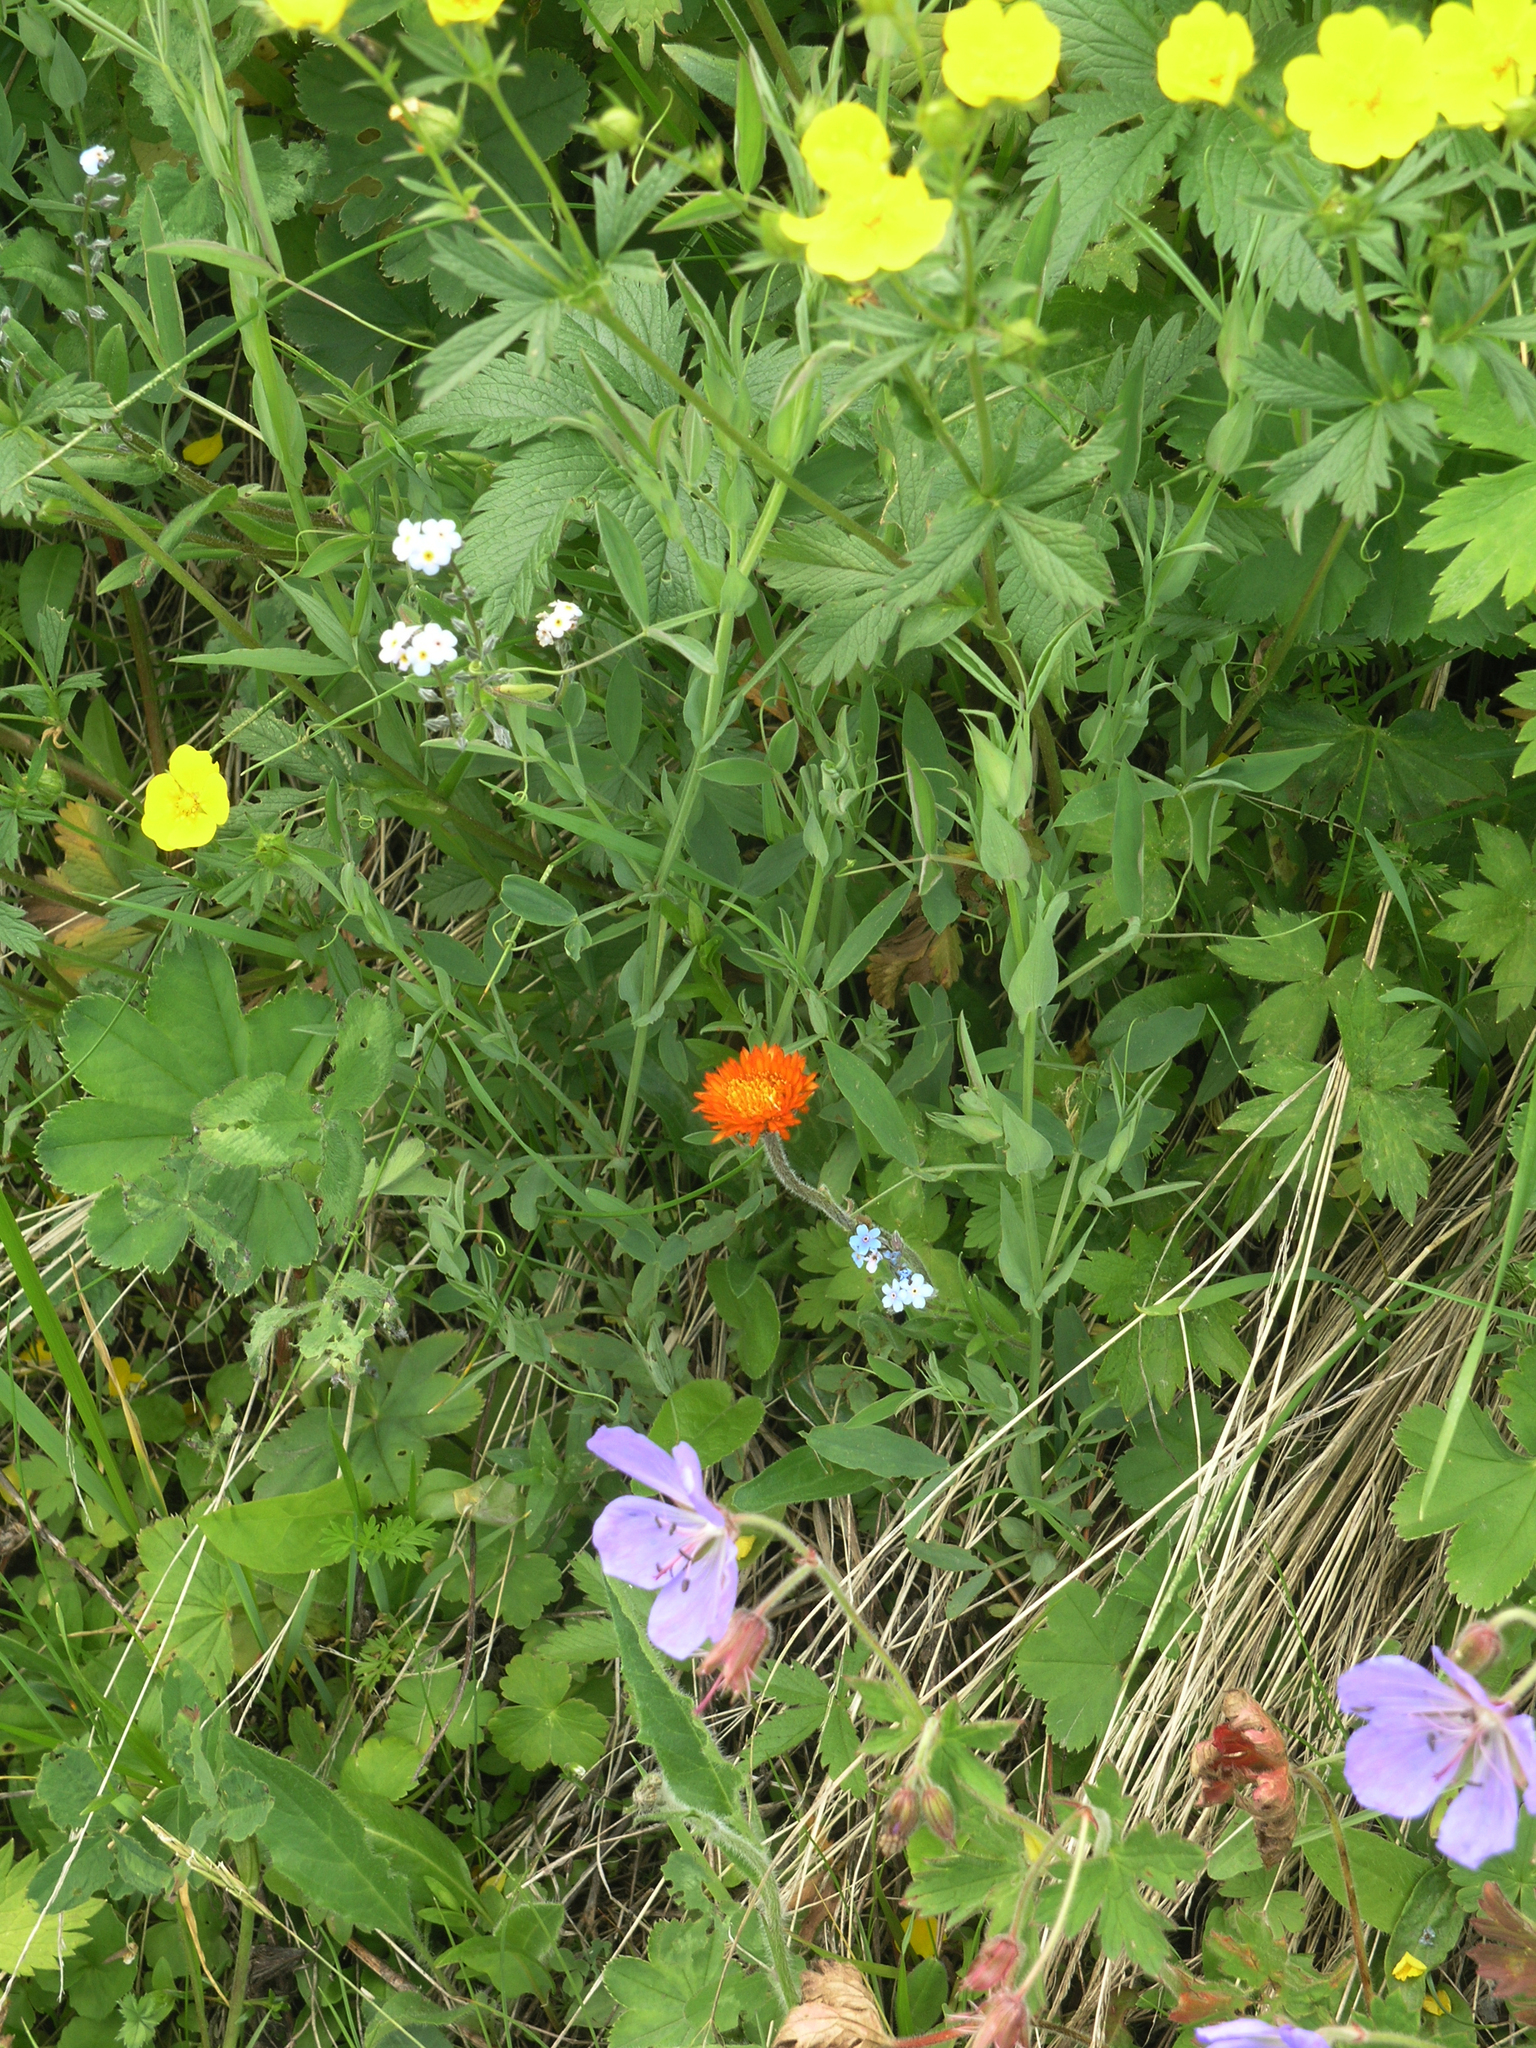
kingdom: Plantae
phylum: Tracheophyta
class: Magnoliopsida
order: Geraniales
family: Geraniaceae
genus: Geranium
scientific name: Geranium pratense
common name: Meadow crane's-bill
